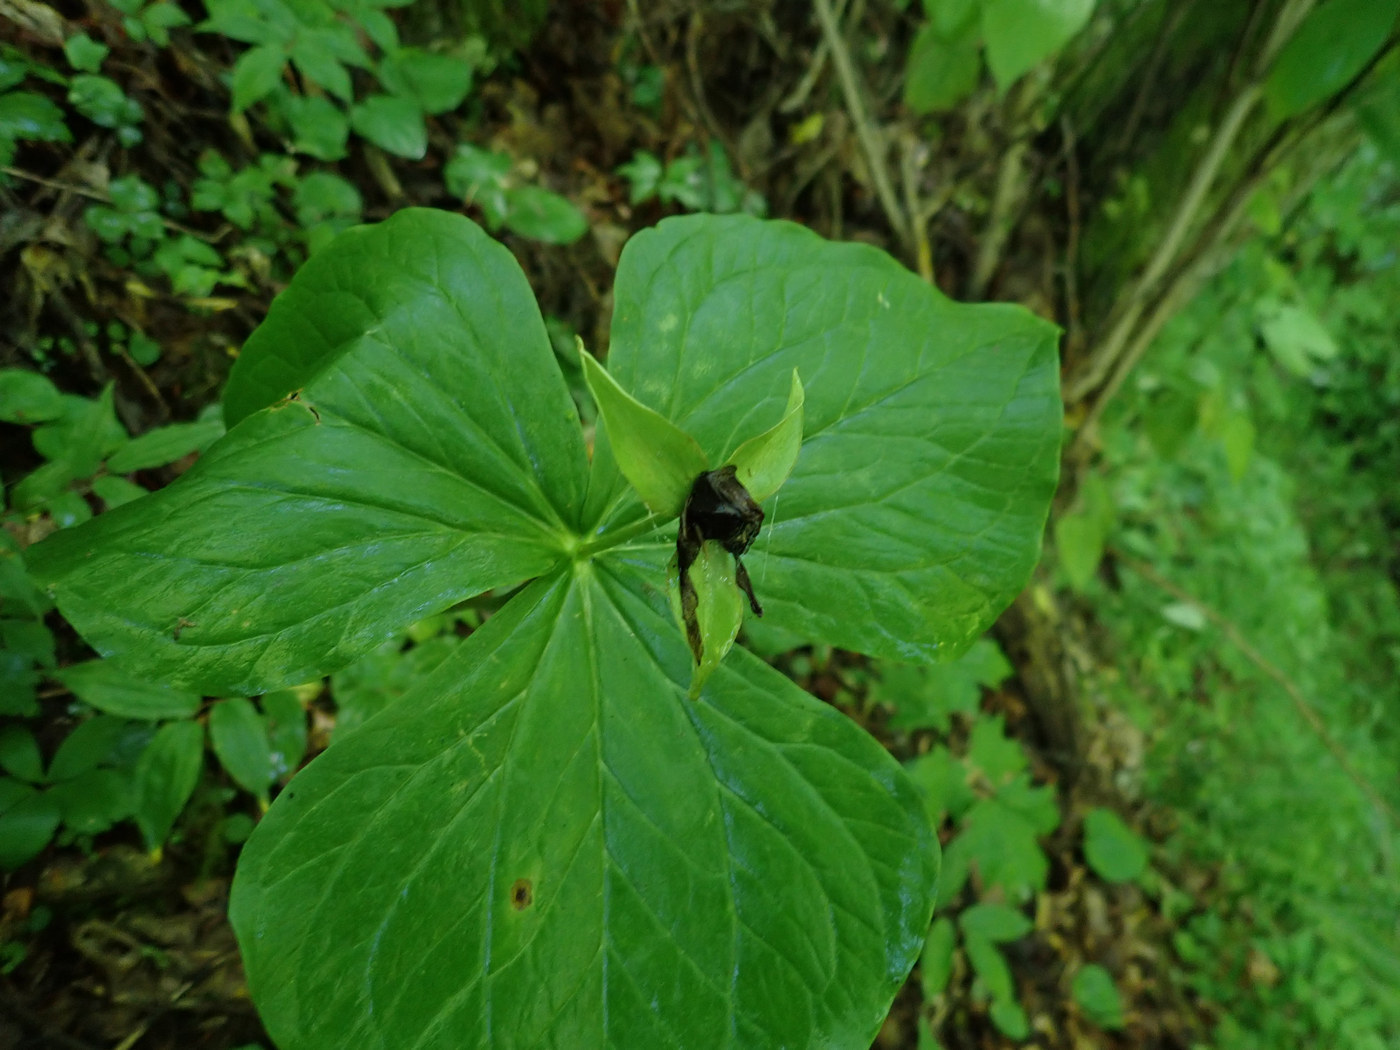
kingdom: Plantae
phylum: Tracheophyta
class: Liliopsida
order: Liliales
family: Melanthiaceae
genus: Trillium
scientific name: Trillium erectum
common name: Purple trillium
